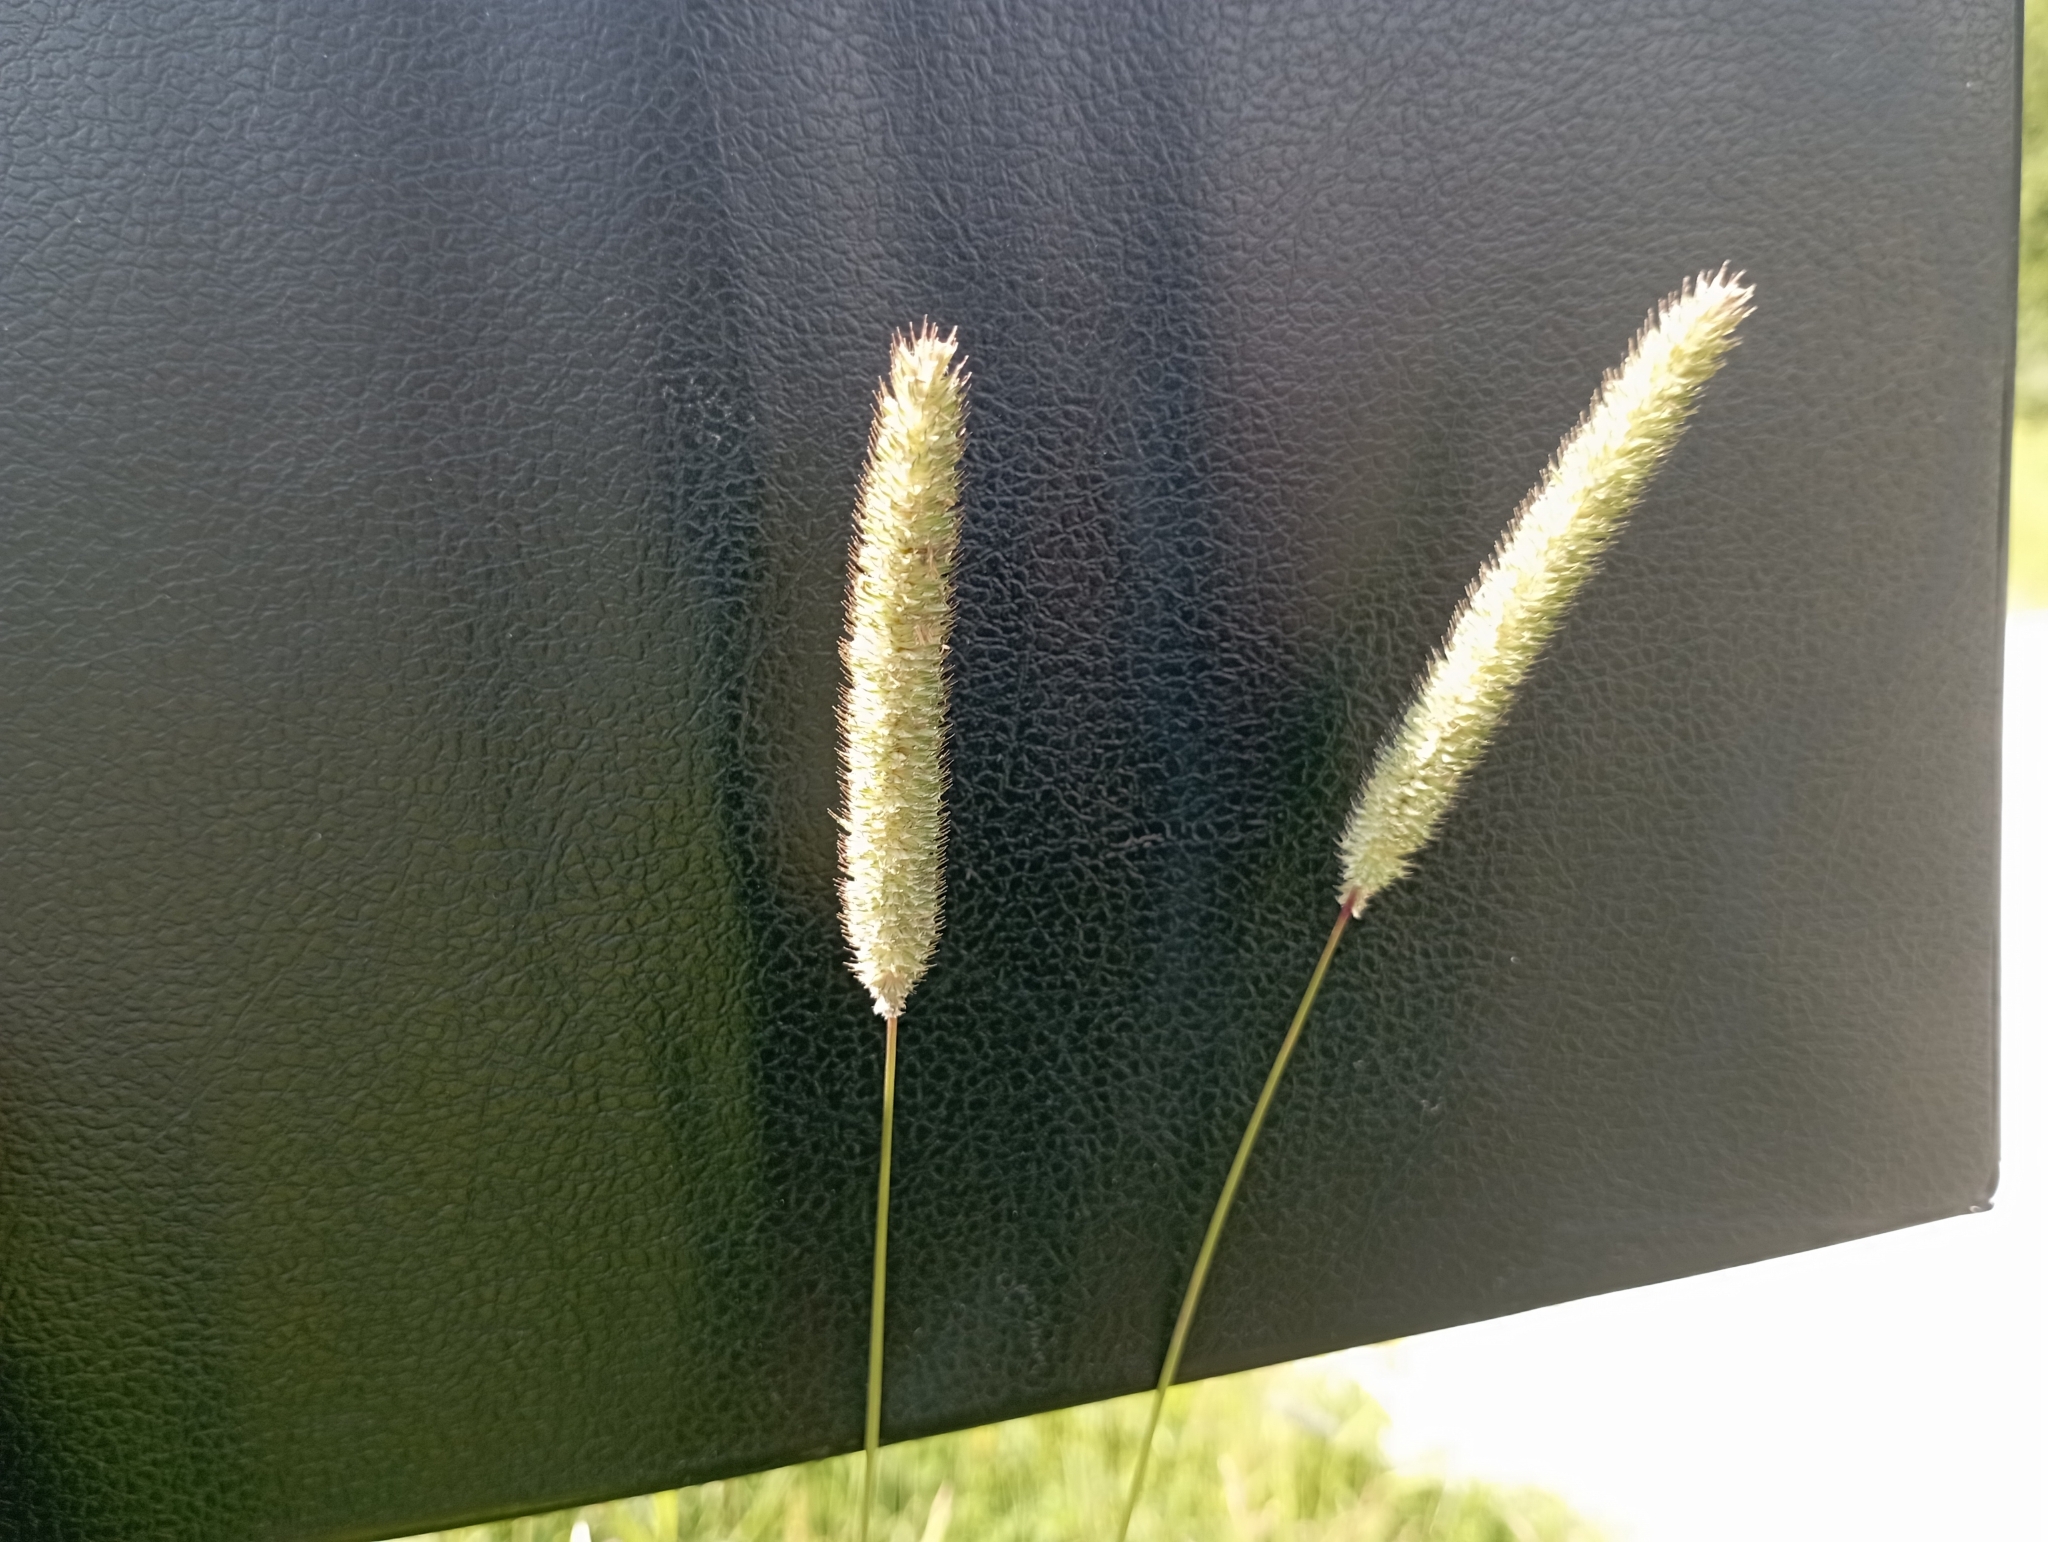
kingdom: Plantae
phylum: Tracheophyta
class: Liliopsida
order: Poales
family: Poaceae
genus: Phleum
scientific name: Phleum pratense
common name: Timothy grass
